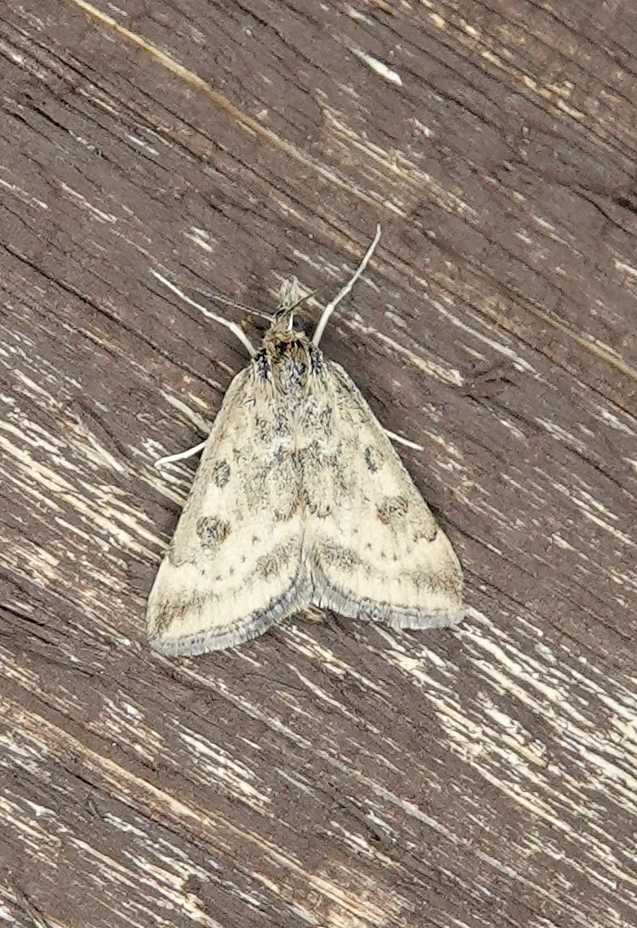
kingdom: Animalia
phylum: Arthropoda
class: Insecta
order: Lepidoptera
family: Crambidae
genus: Pyrausta
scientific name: Pyrausta subsequalis
